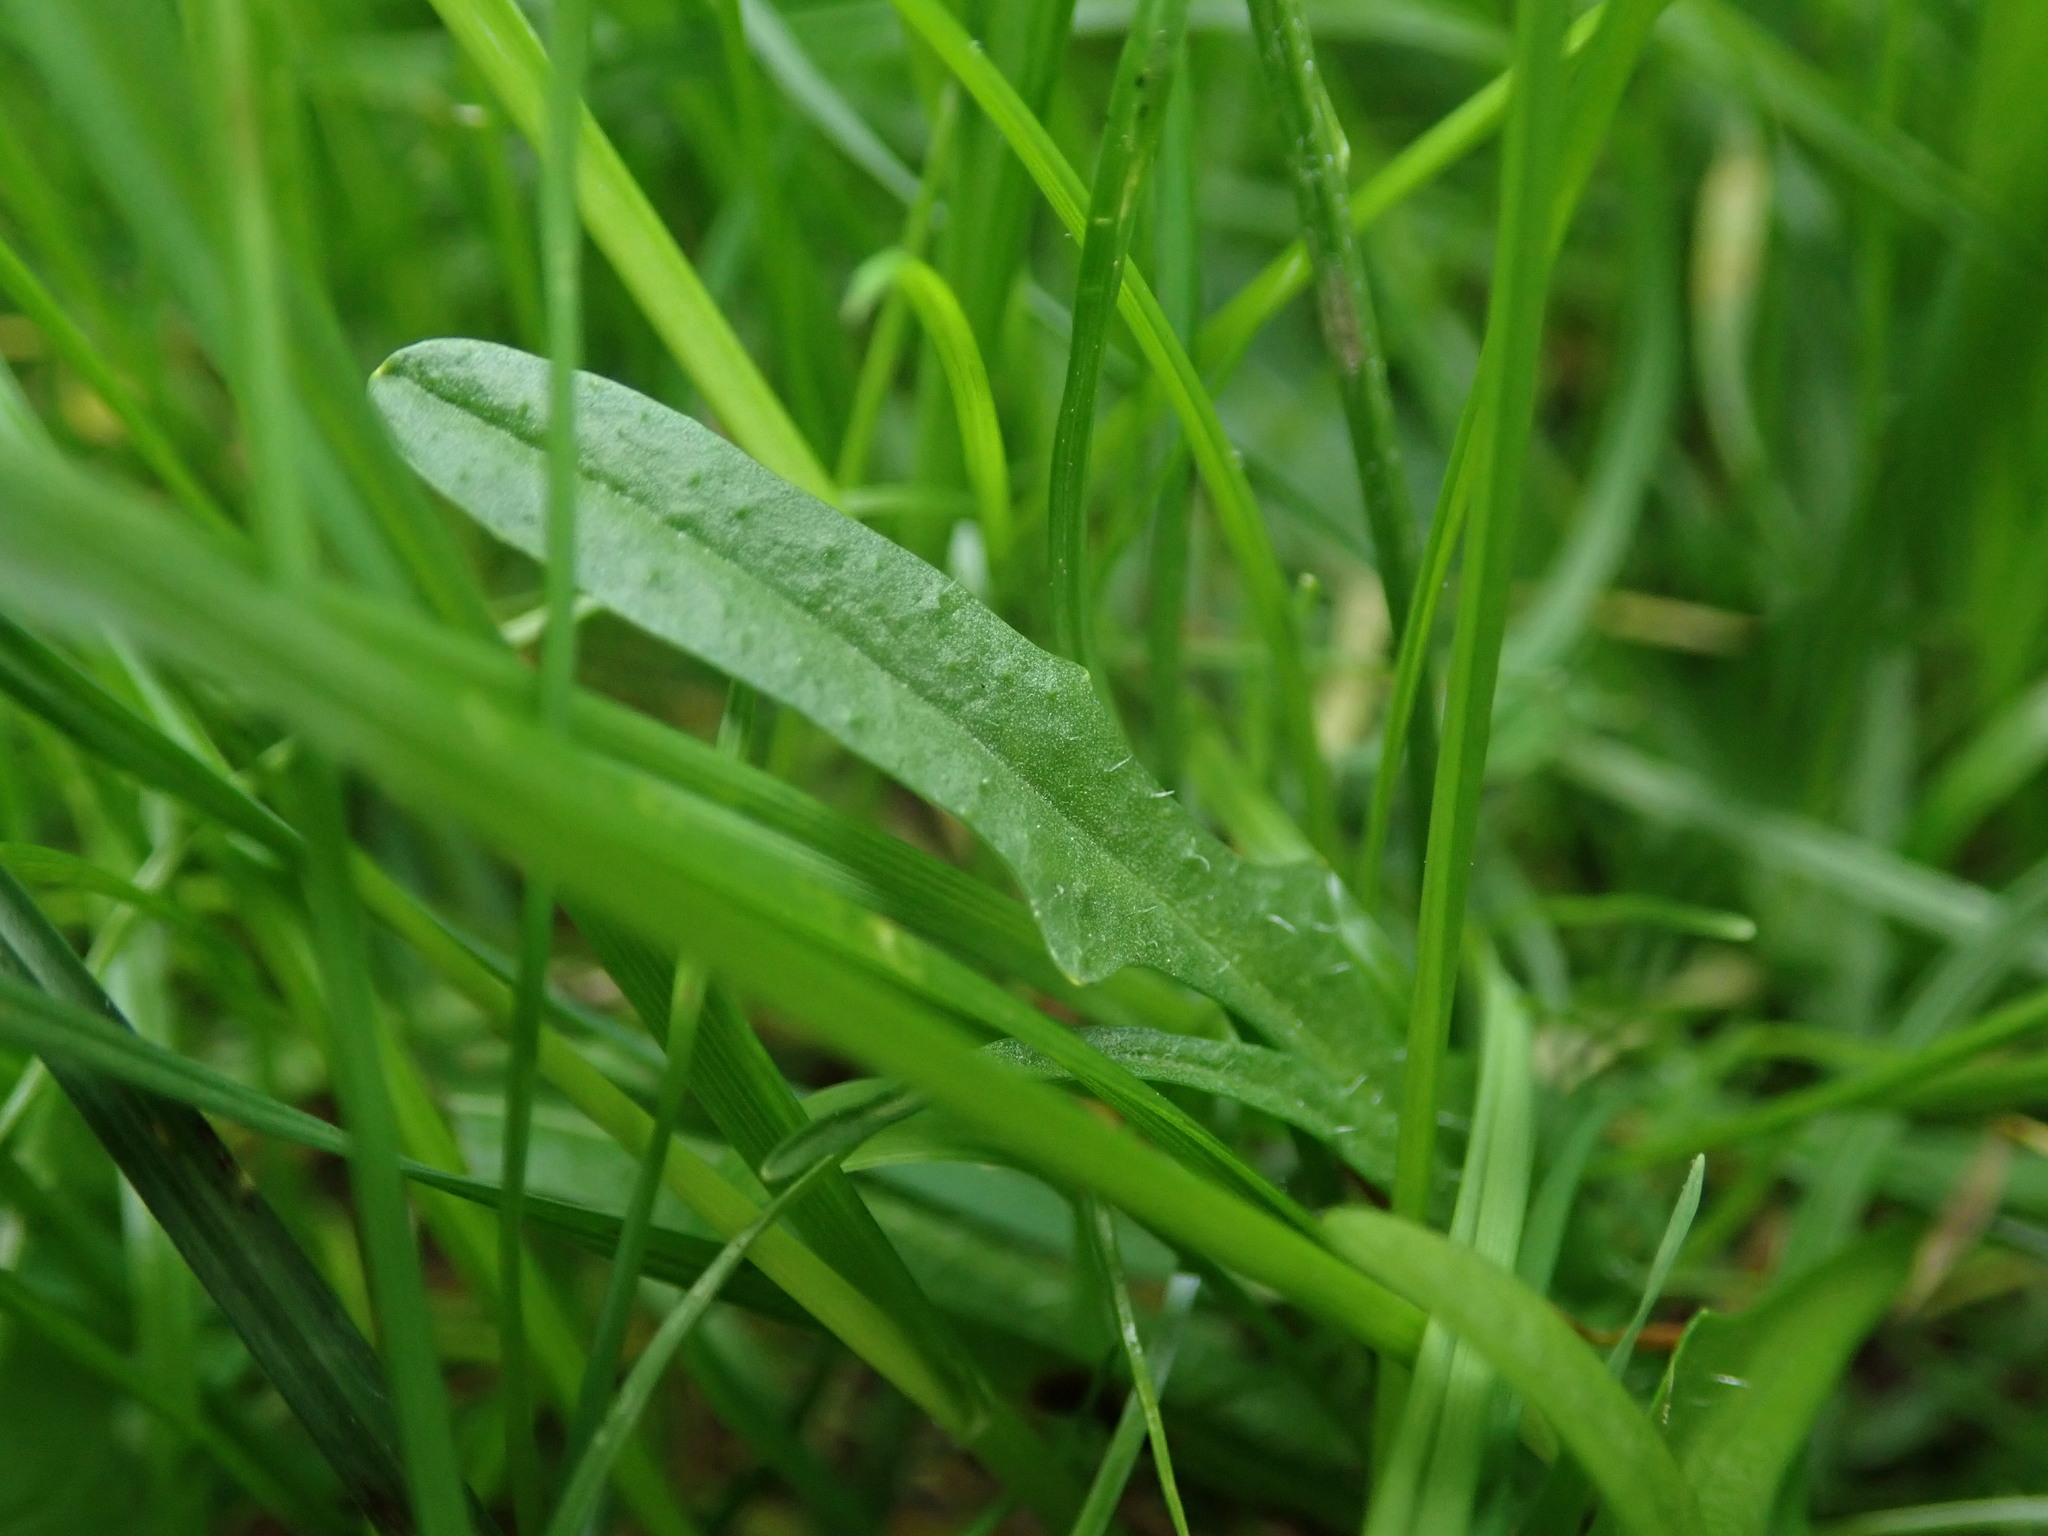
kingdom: Plantae
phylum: Tracheophyta
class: Magnoliopsida
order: Asterales
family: Asteraceae
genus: Scorzoneroides
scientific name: Scorzoneroides autumnalis
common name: Autumn hawkbit
